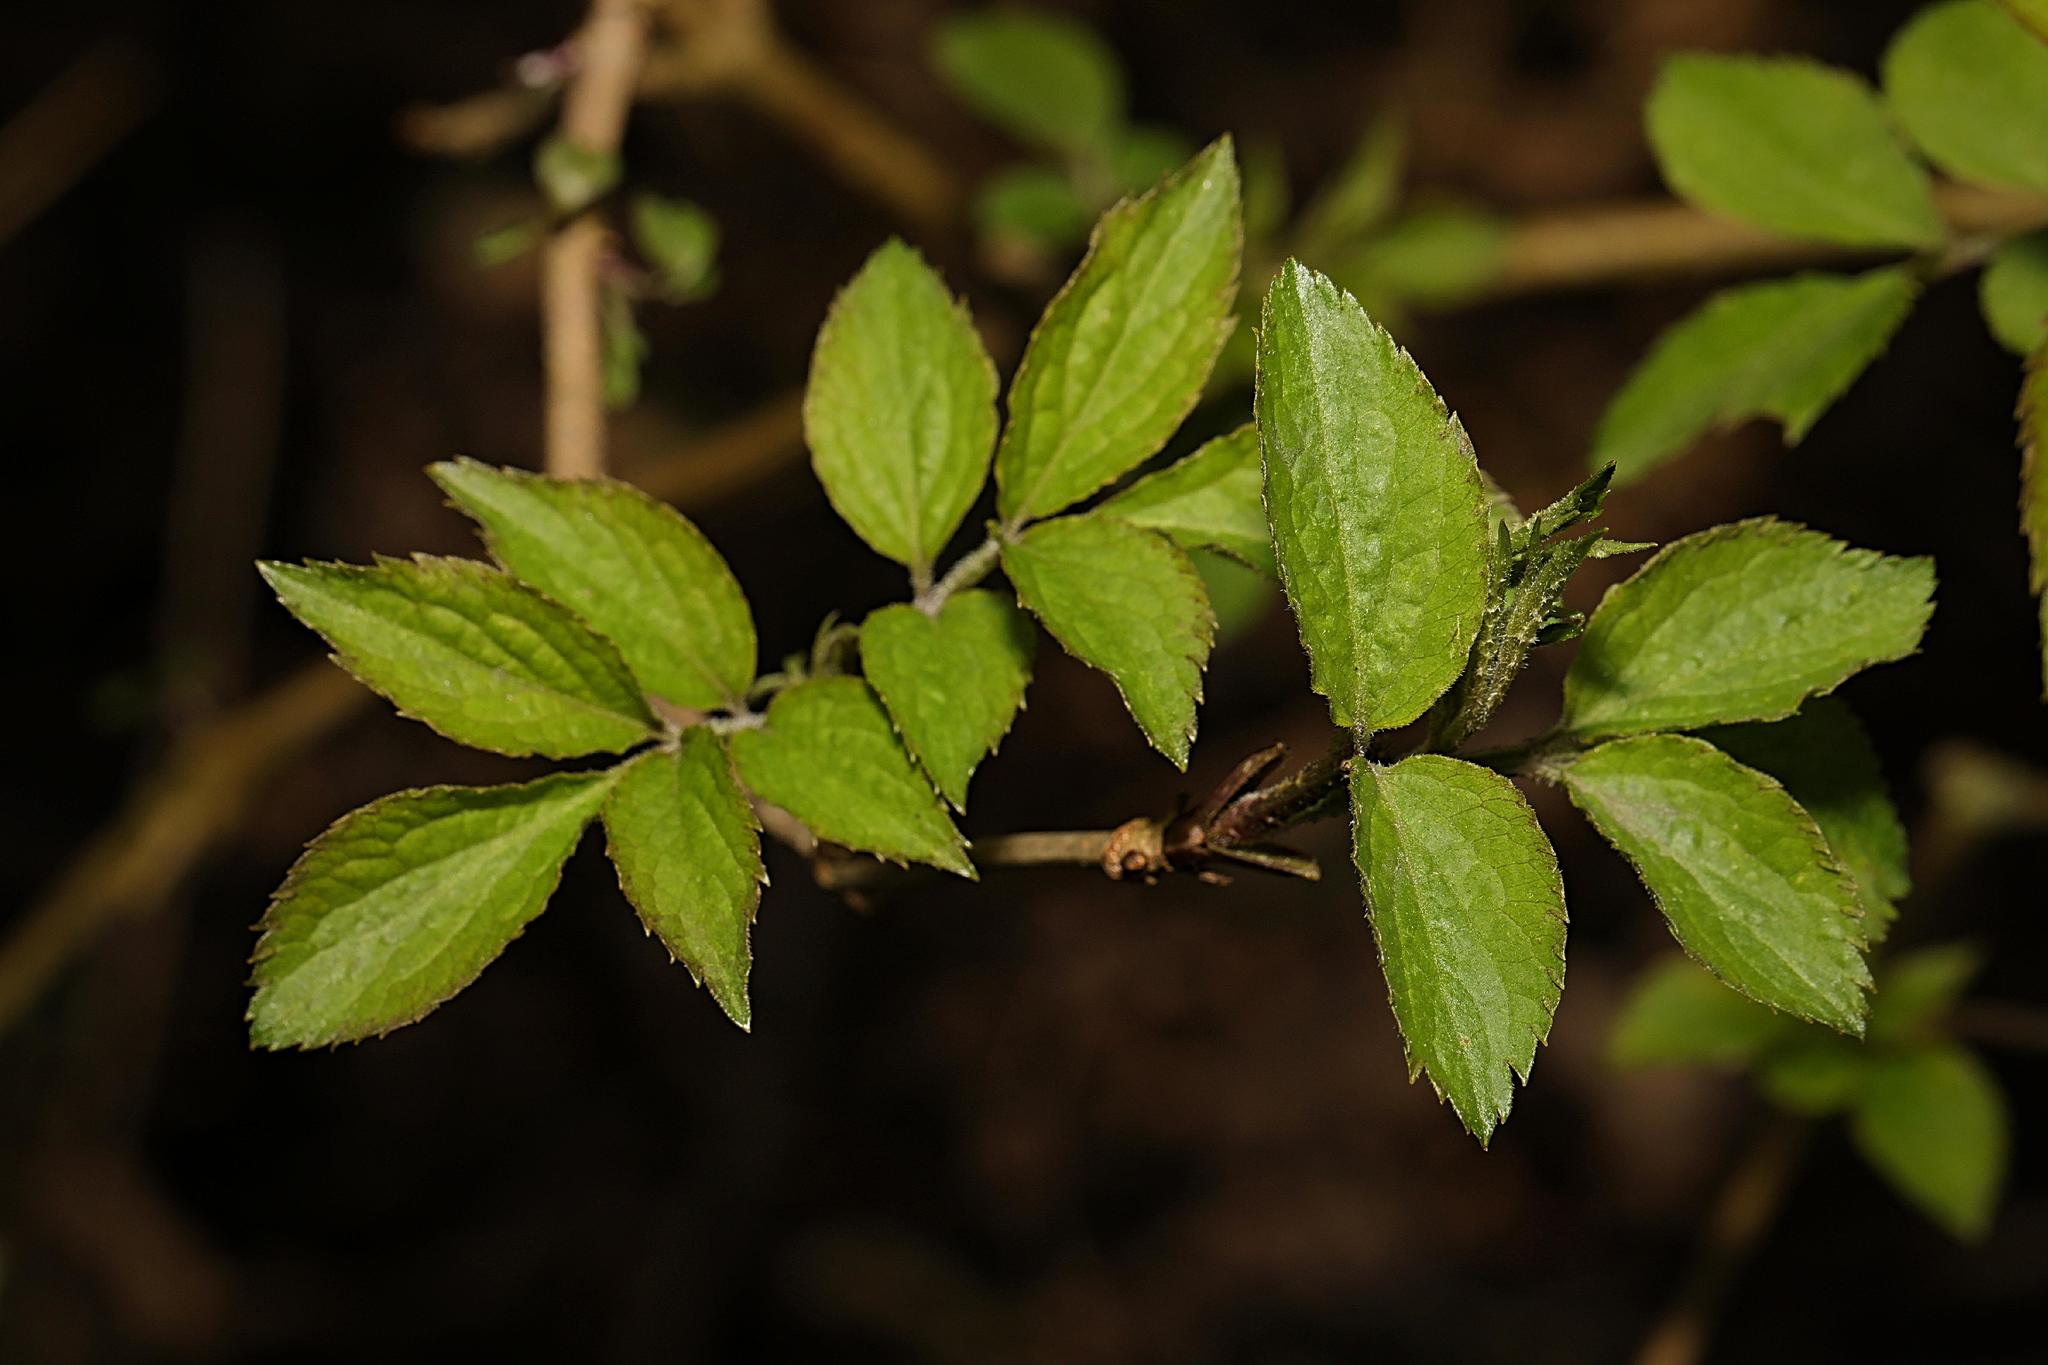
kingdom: Plantae
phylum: Tracheophyta
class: Magnoliopsida
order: Dipsacales
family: Viburnaceae
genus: Sambucus
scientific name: Sambucus nigra
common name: Elder
